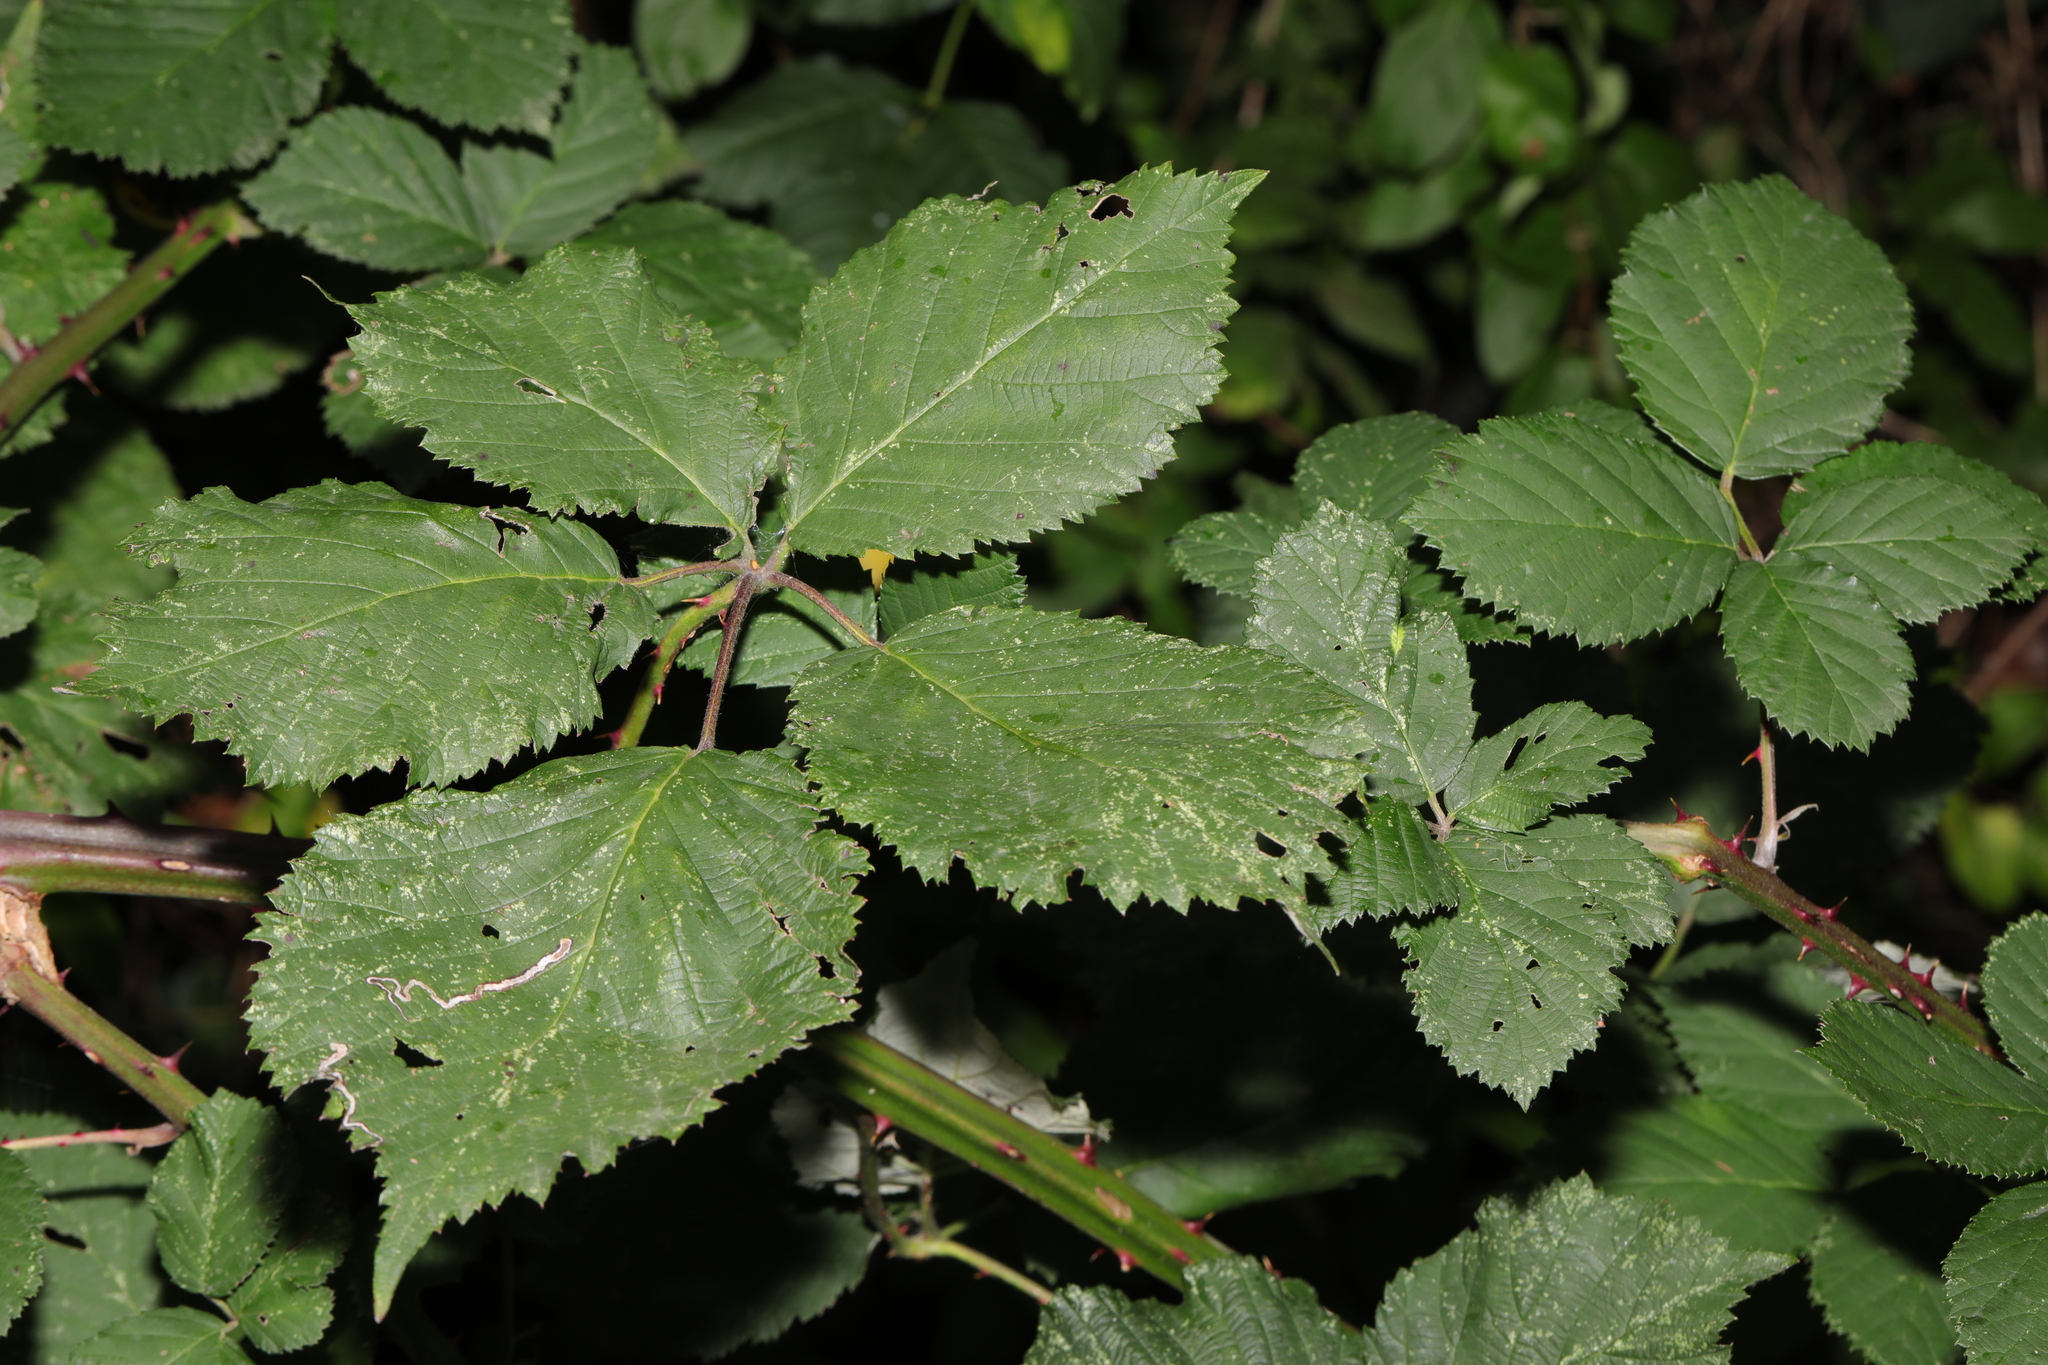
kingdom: Plantae
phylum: Tracheophyta
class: Magnoliopsida
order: Rosales
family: Rosaceae
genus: Rubus
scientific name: Rubus armeniacus
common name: Himalayan blackberry
